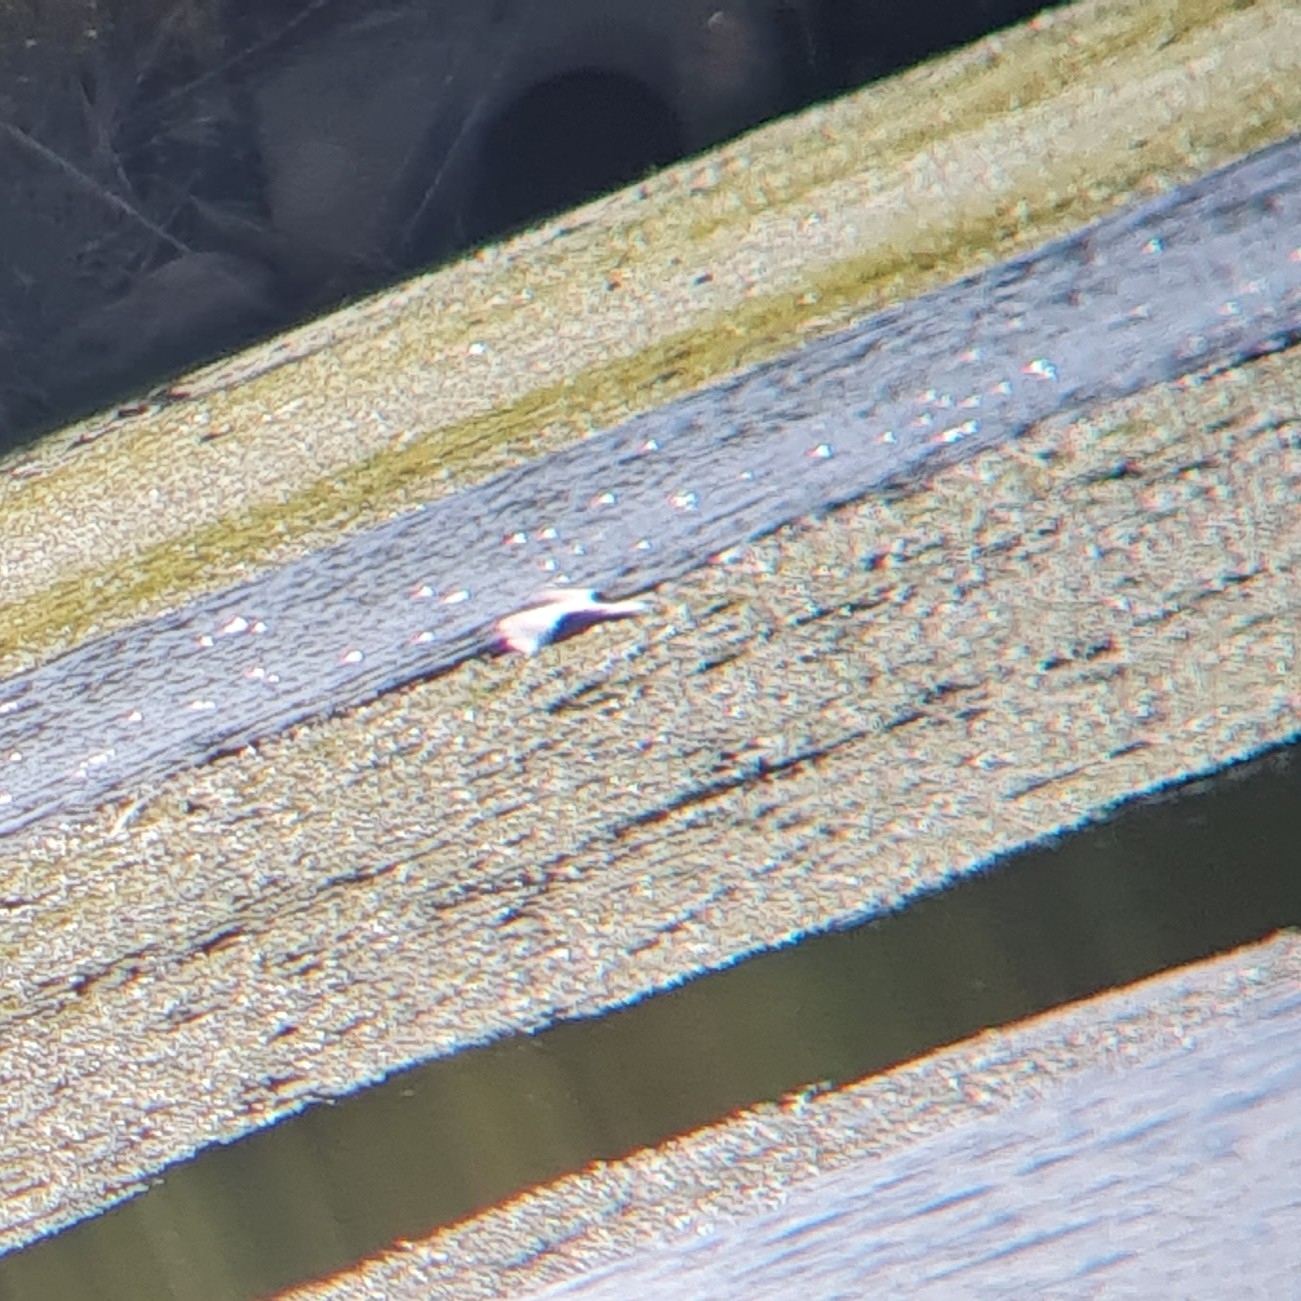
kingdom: Animalia
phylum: Chordata
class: Aves
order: Charadriiformes
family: Laridae
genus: Chroicocephalus
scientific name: Chroicocephalus ridibundus
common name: Black-headed gull
